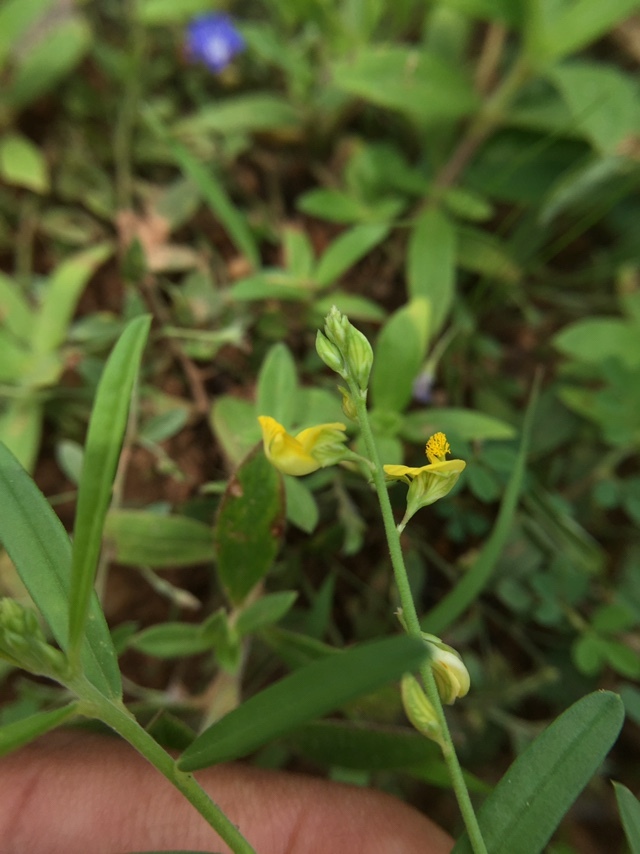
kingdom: Plantae
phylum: Tracheophyta
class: Magnoliopsida
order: Fabales
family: Polygalaceae
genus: Polygala
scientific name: Polygala arvensis
